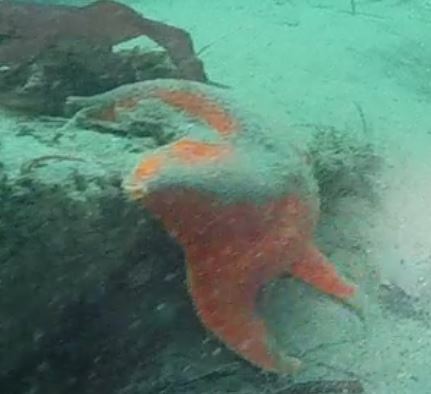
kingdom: Animalia
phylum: Echinodermata
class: Asteroidea
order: Valvatida
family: Asterinidae
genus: Patiria
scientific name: Patiria miniata
